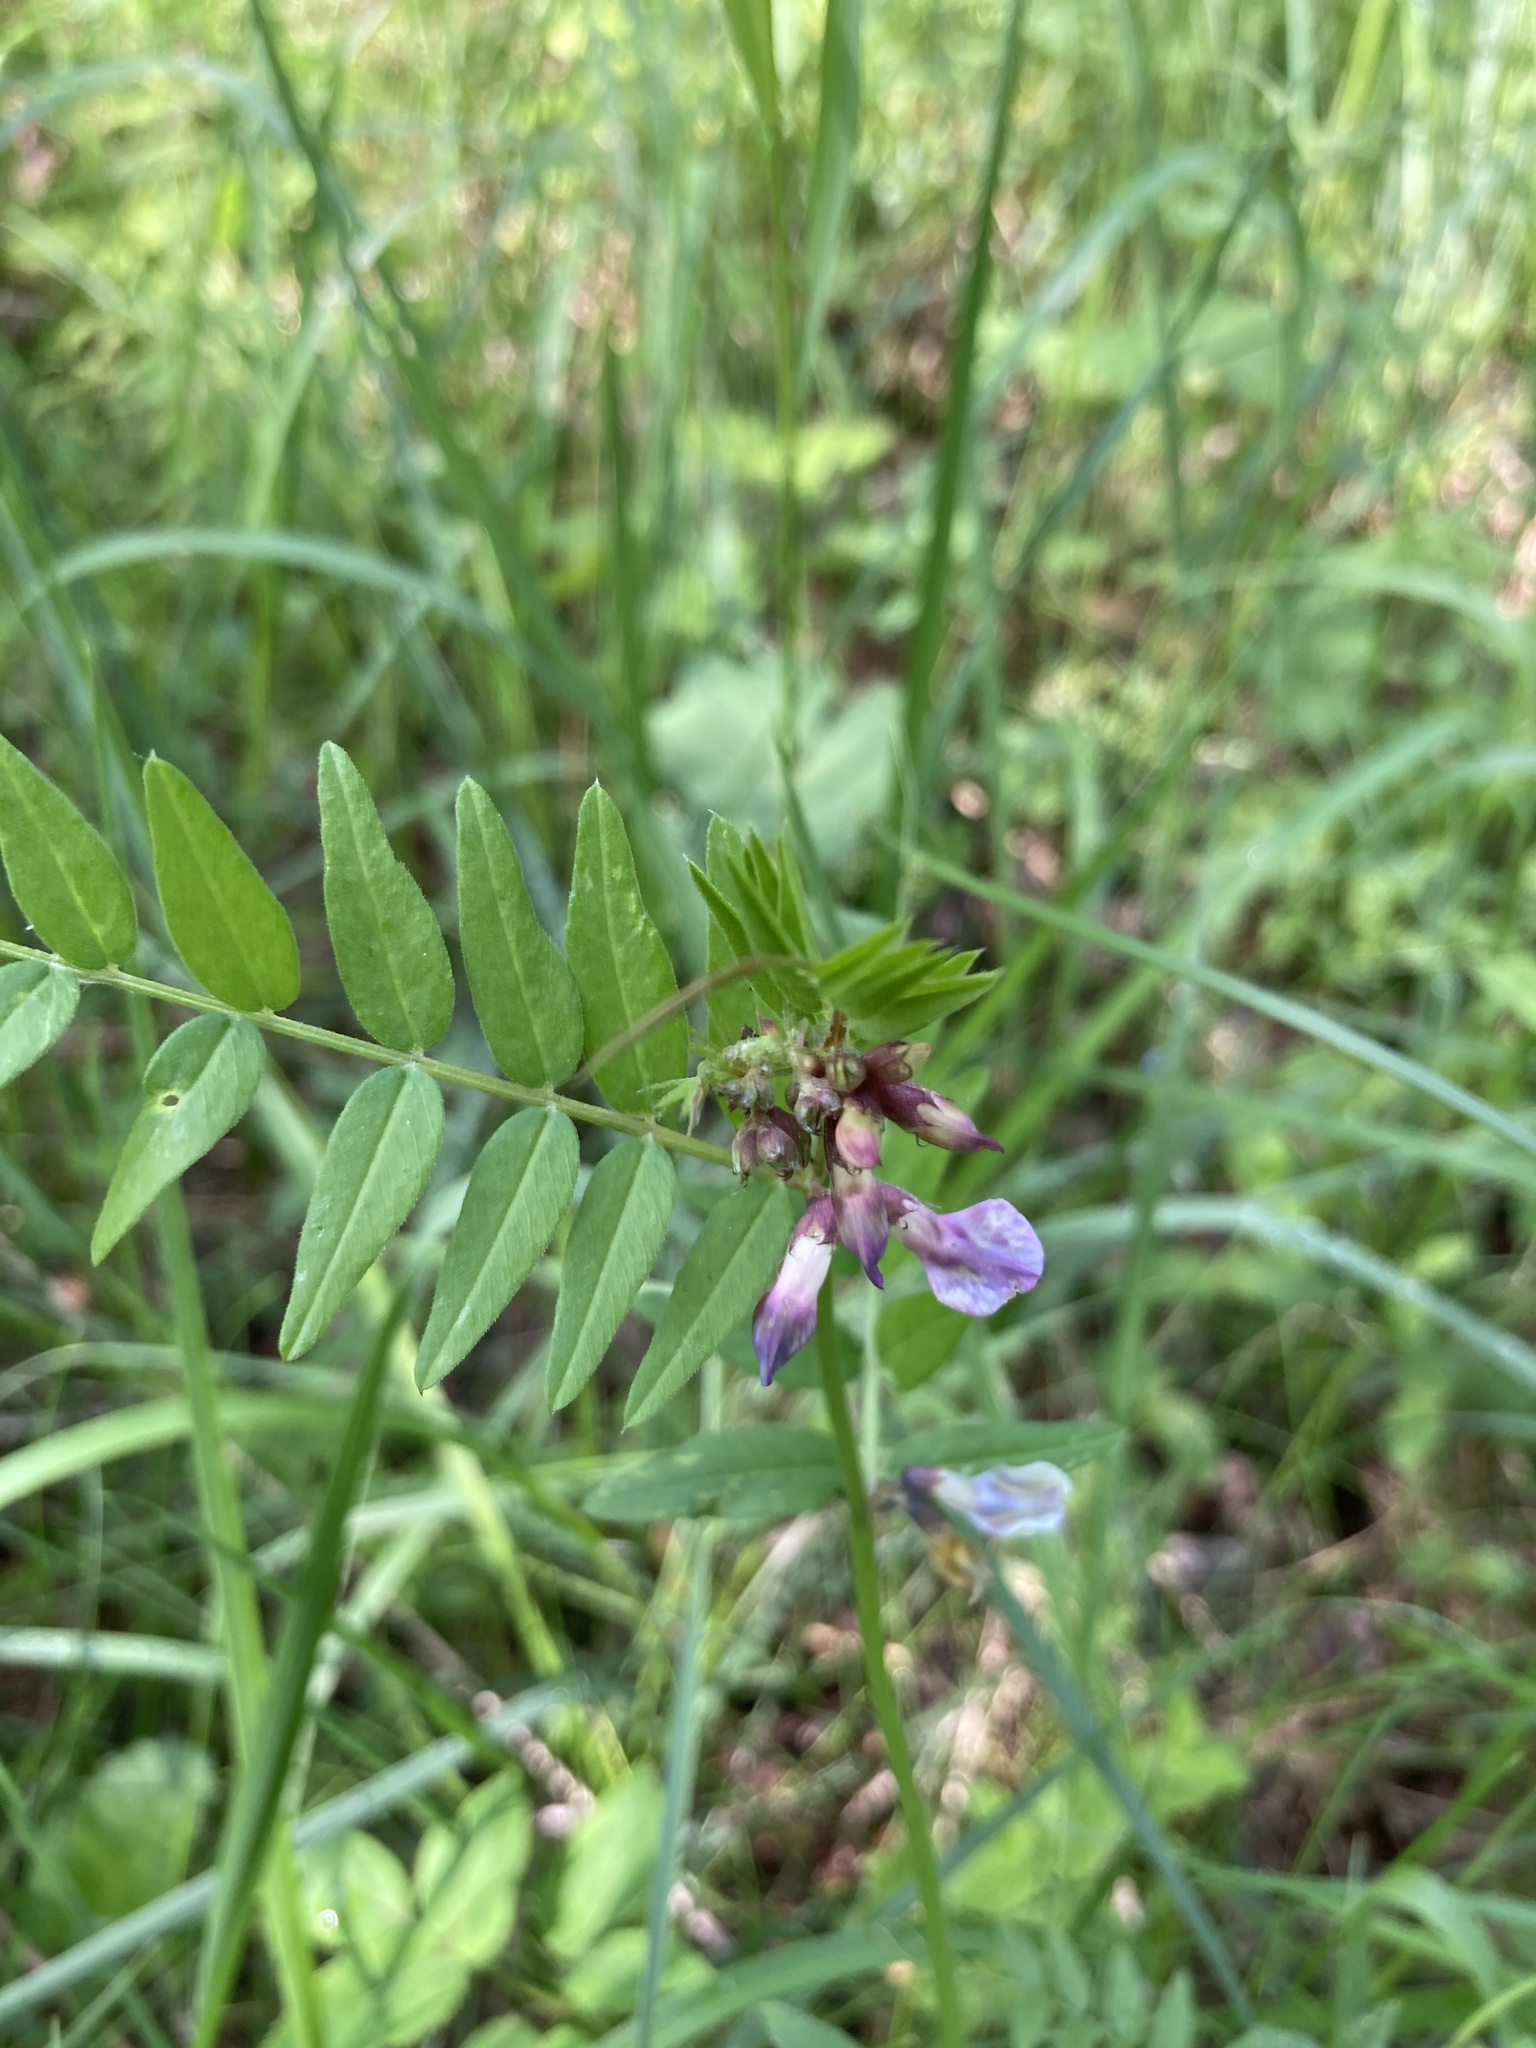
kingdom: Plantae
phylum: Tracheophyta
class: Magnoliopsida
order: Fabales
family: Fabaceae
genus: Vicia
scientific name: Vicia sepium
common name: Bush vetch
